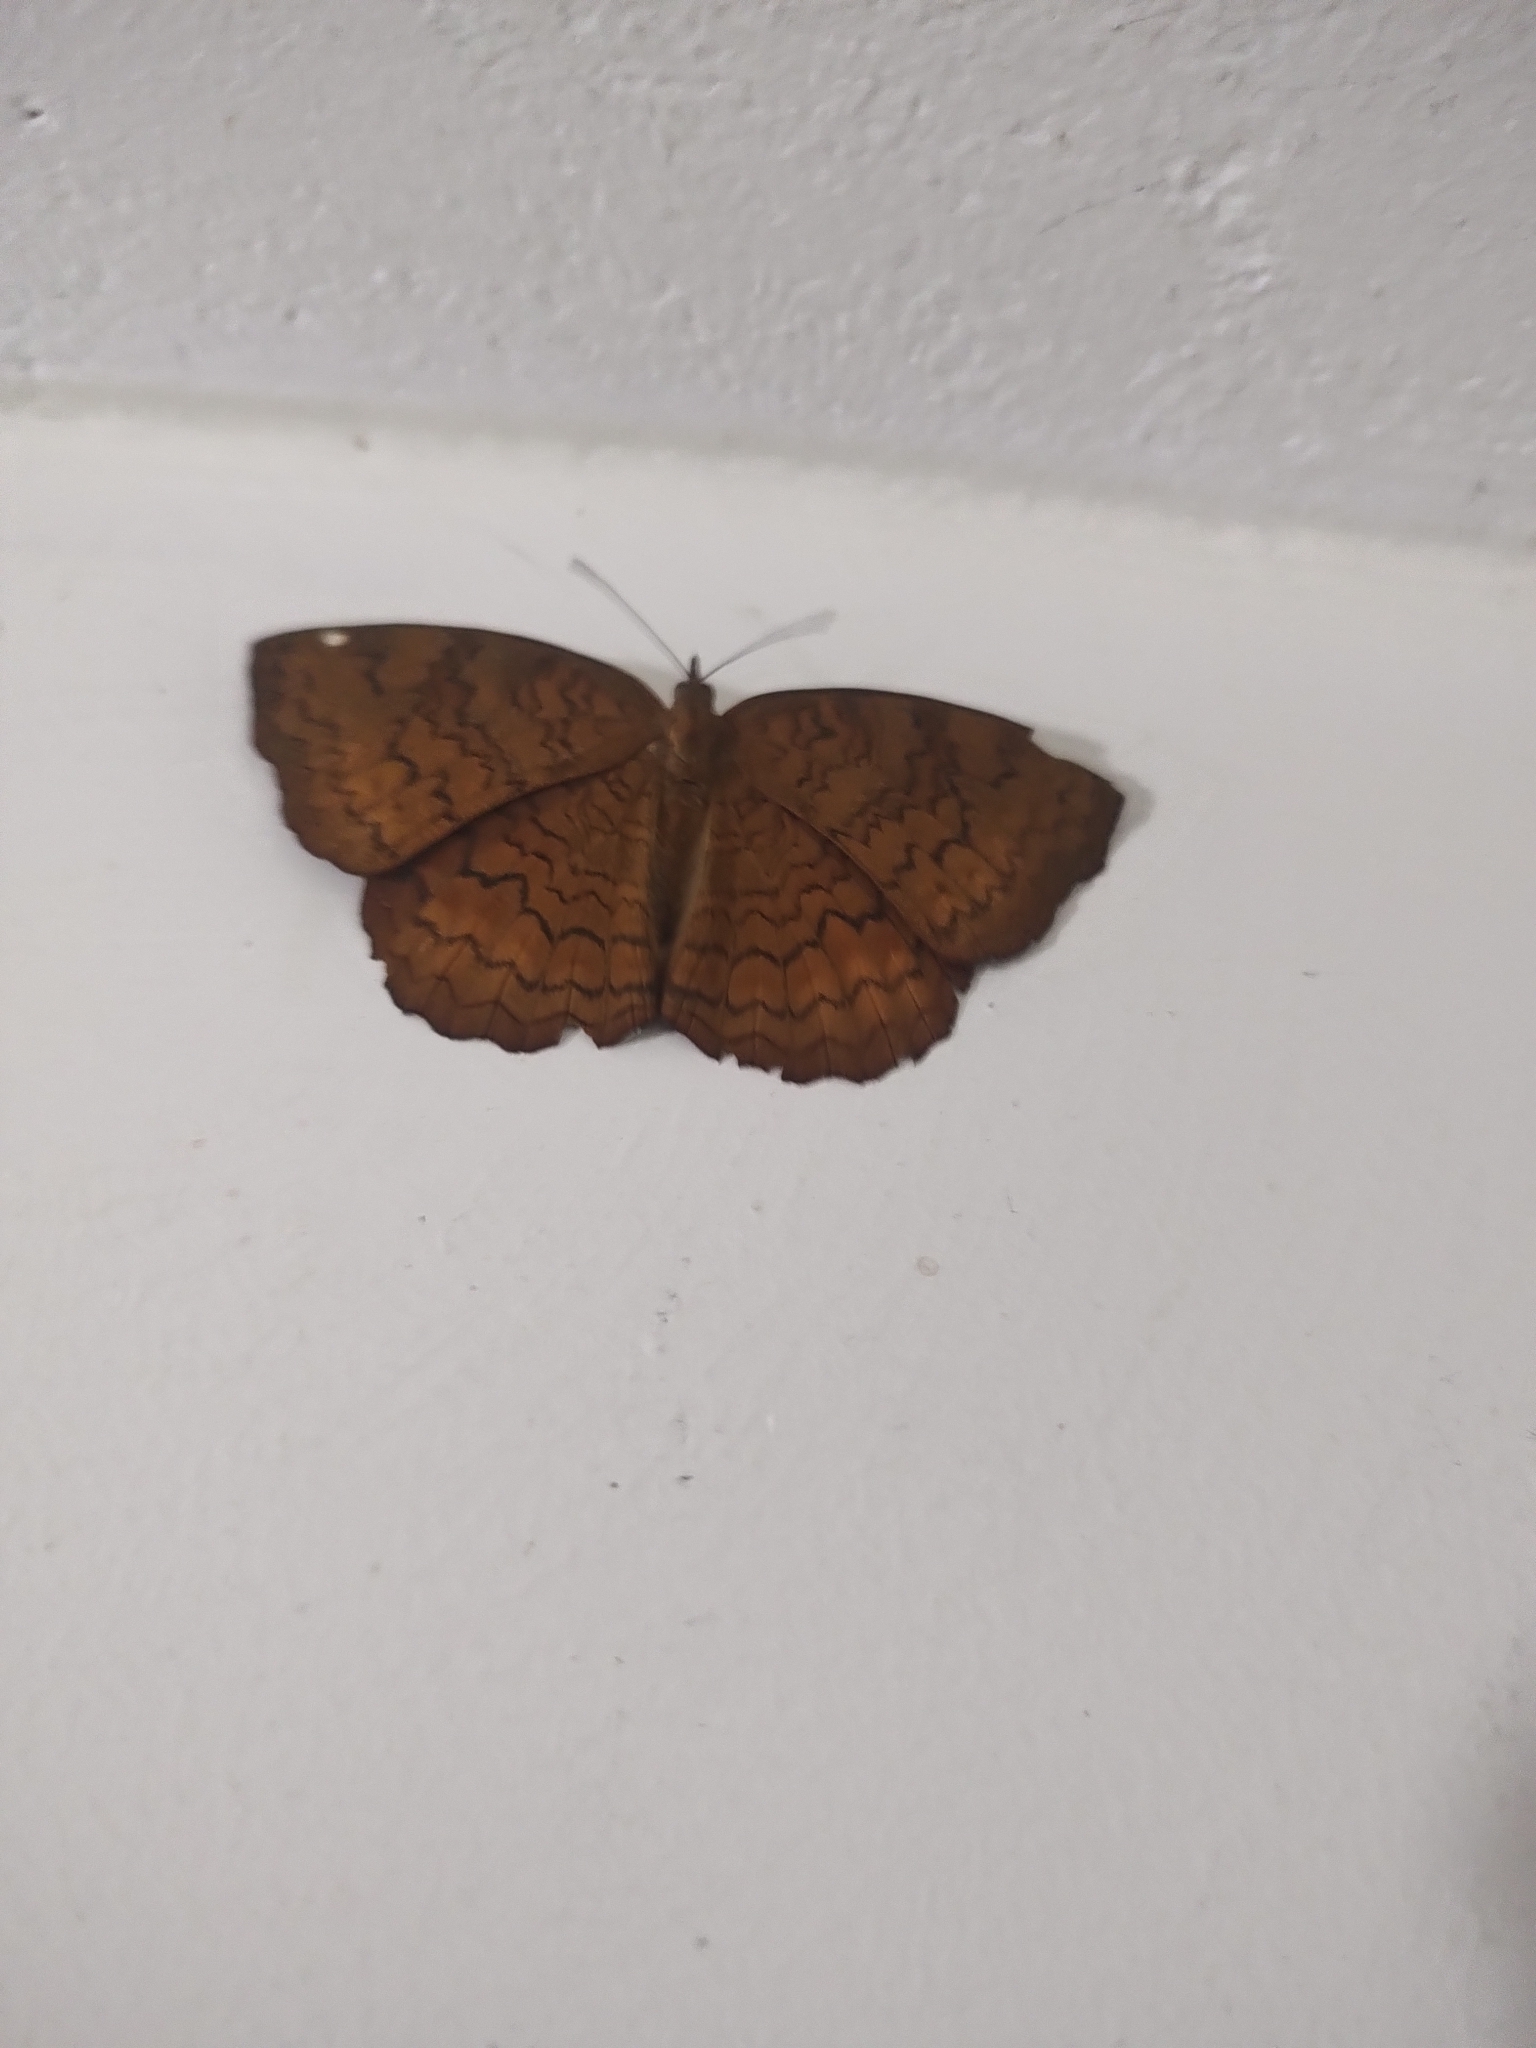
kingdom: Animalia
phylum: Arthropoda
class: Insecta
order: Lepidoptera
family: Nymphalidae
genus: Ariadne
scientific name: Ariadne merione
